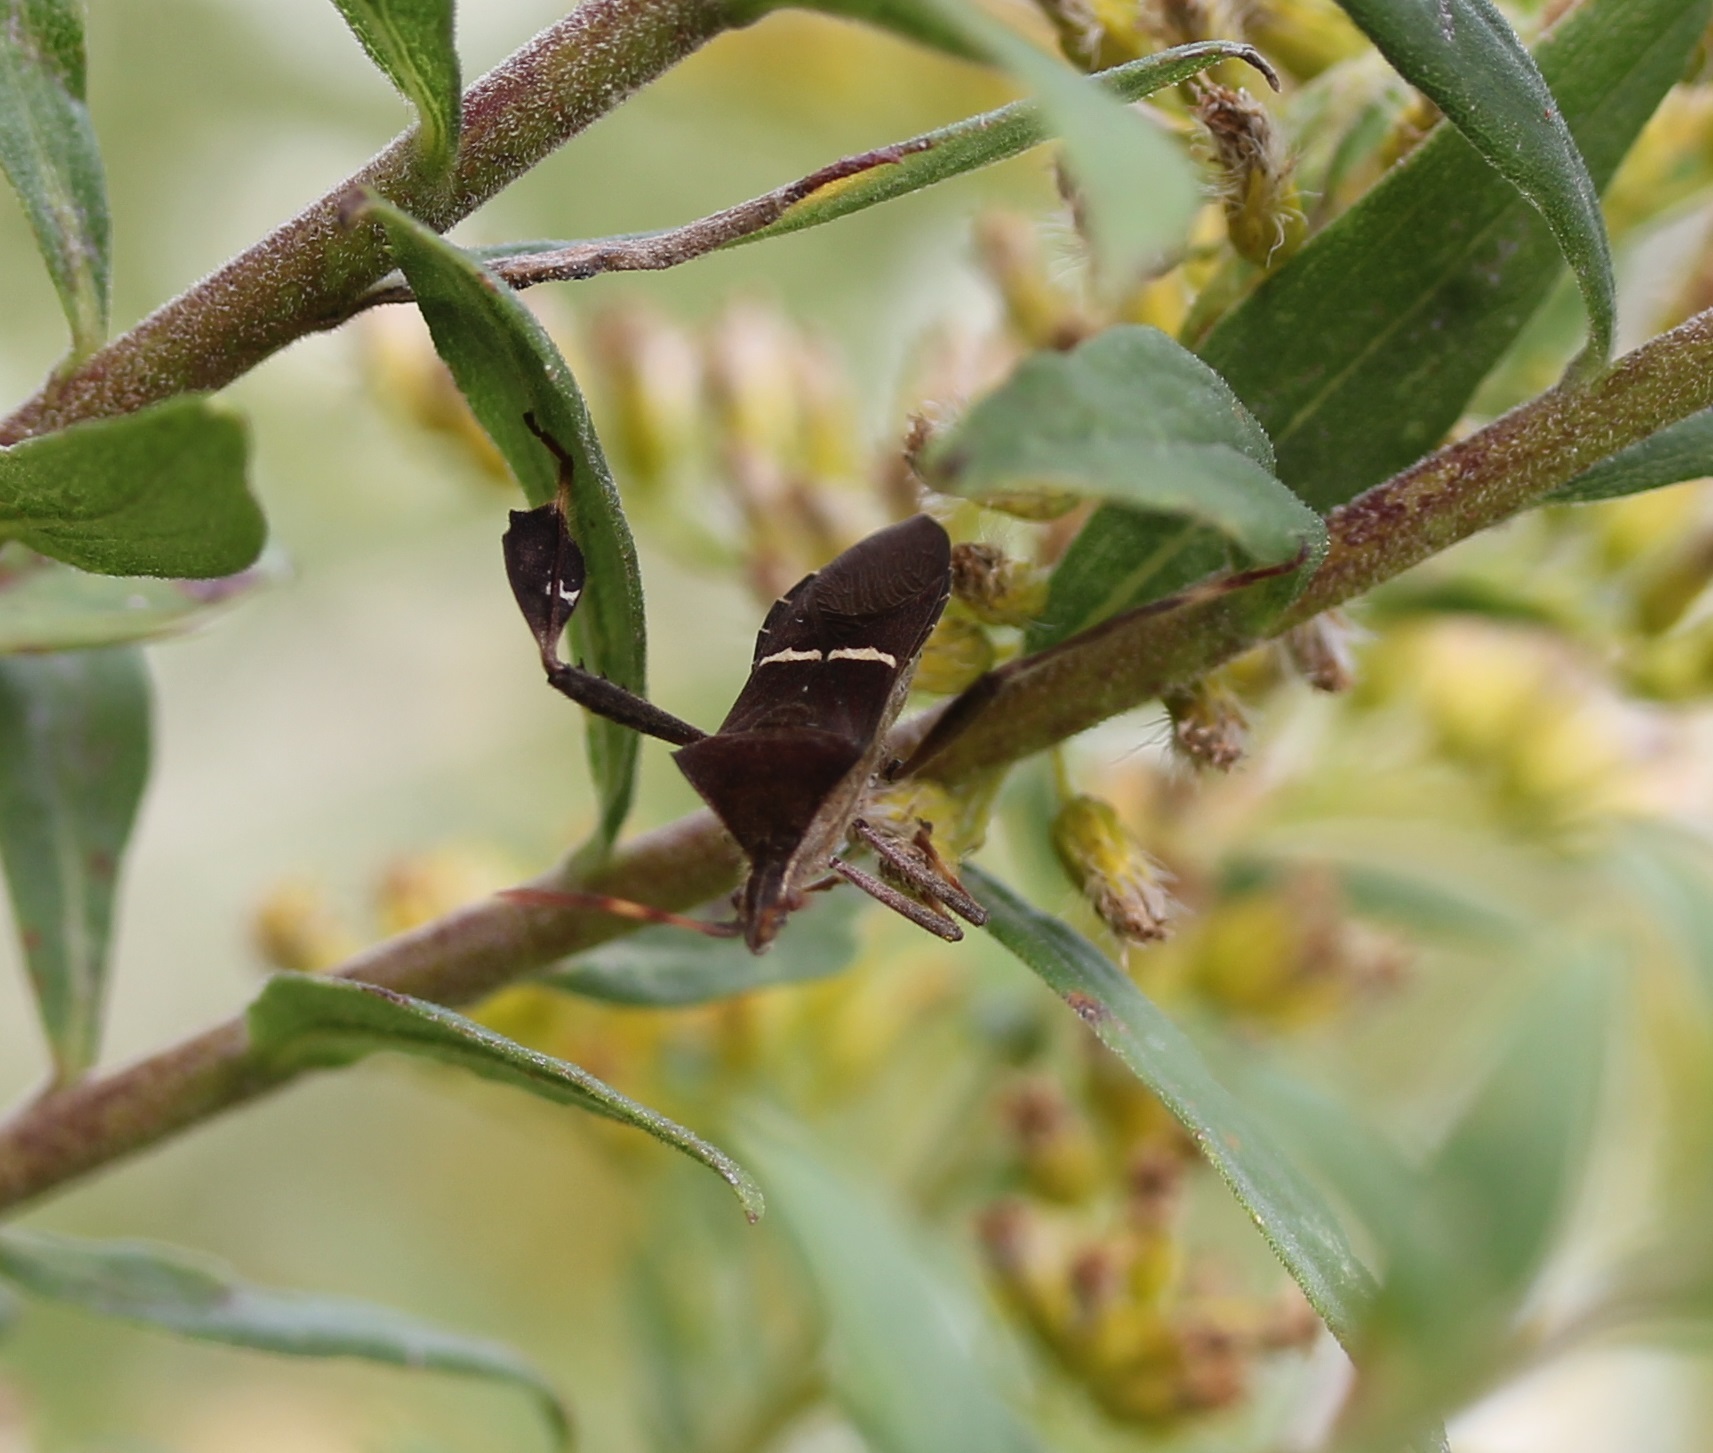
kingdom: Animalia
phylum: Arthropoda
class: Insecta
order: Hemiptera
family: Coreidae
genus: Leptoglossus
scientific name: Leptoglossus phyllopus
